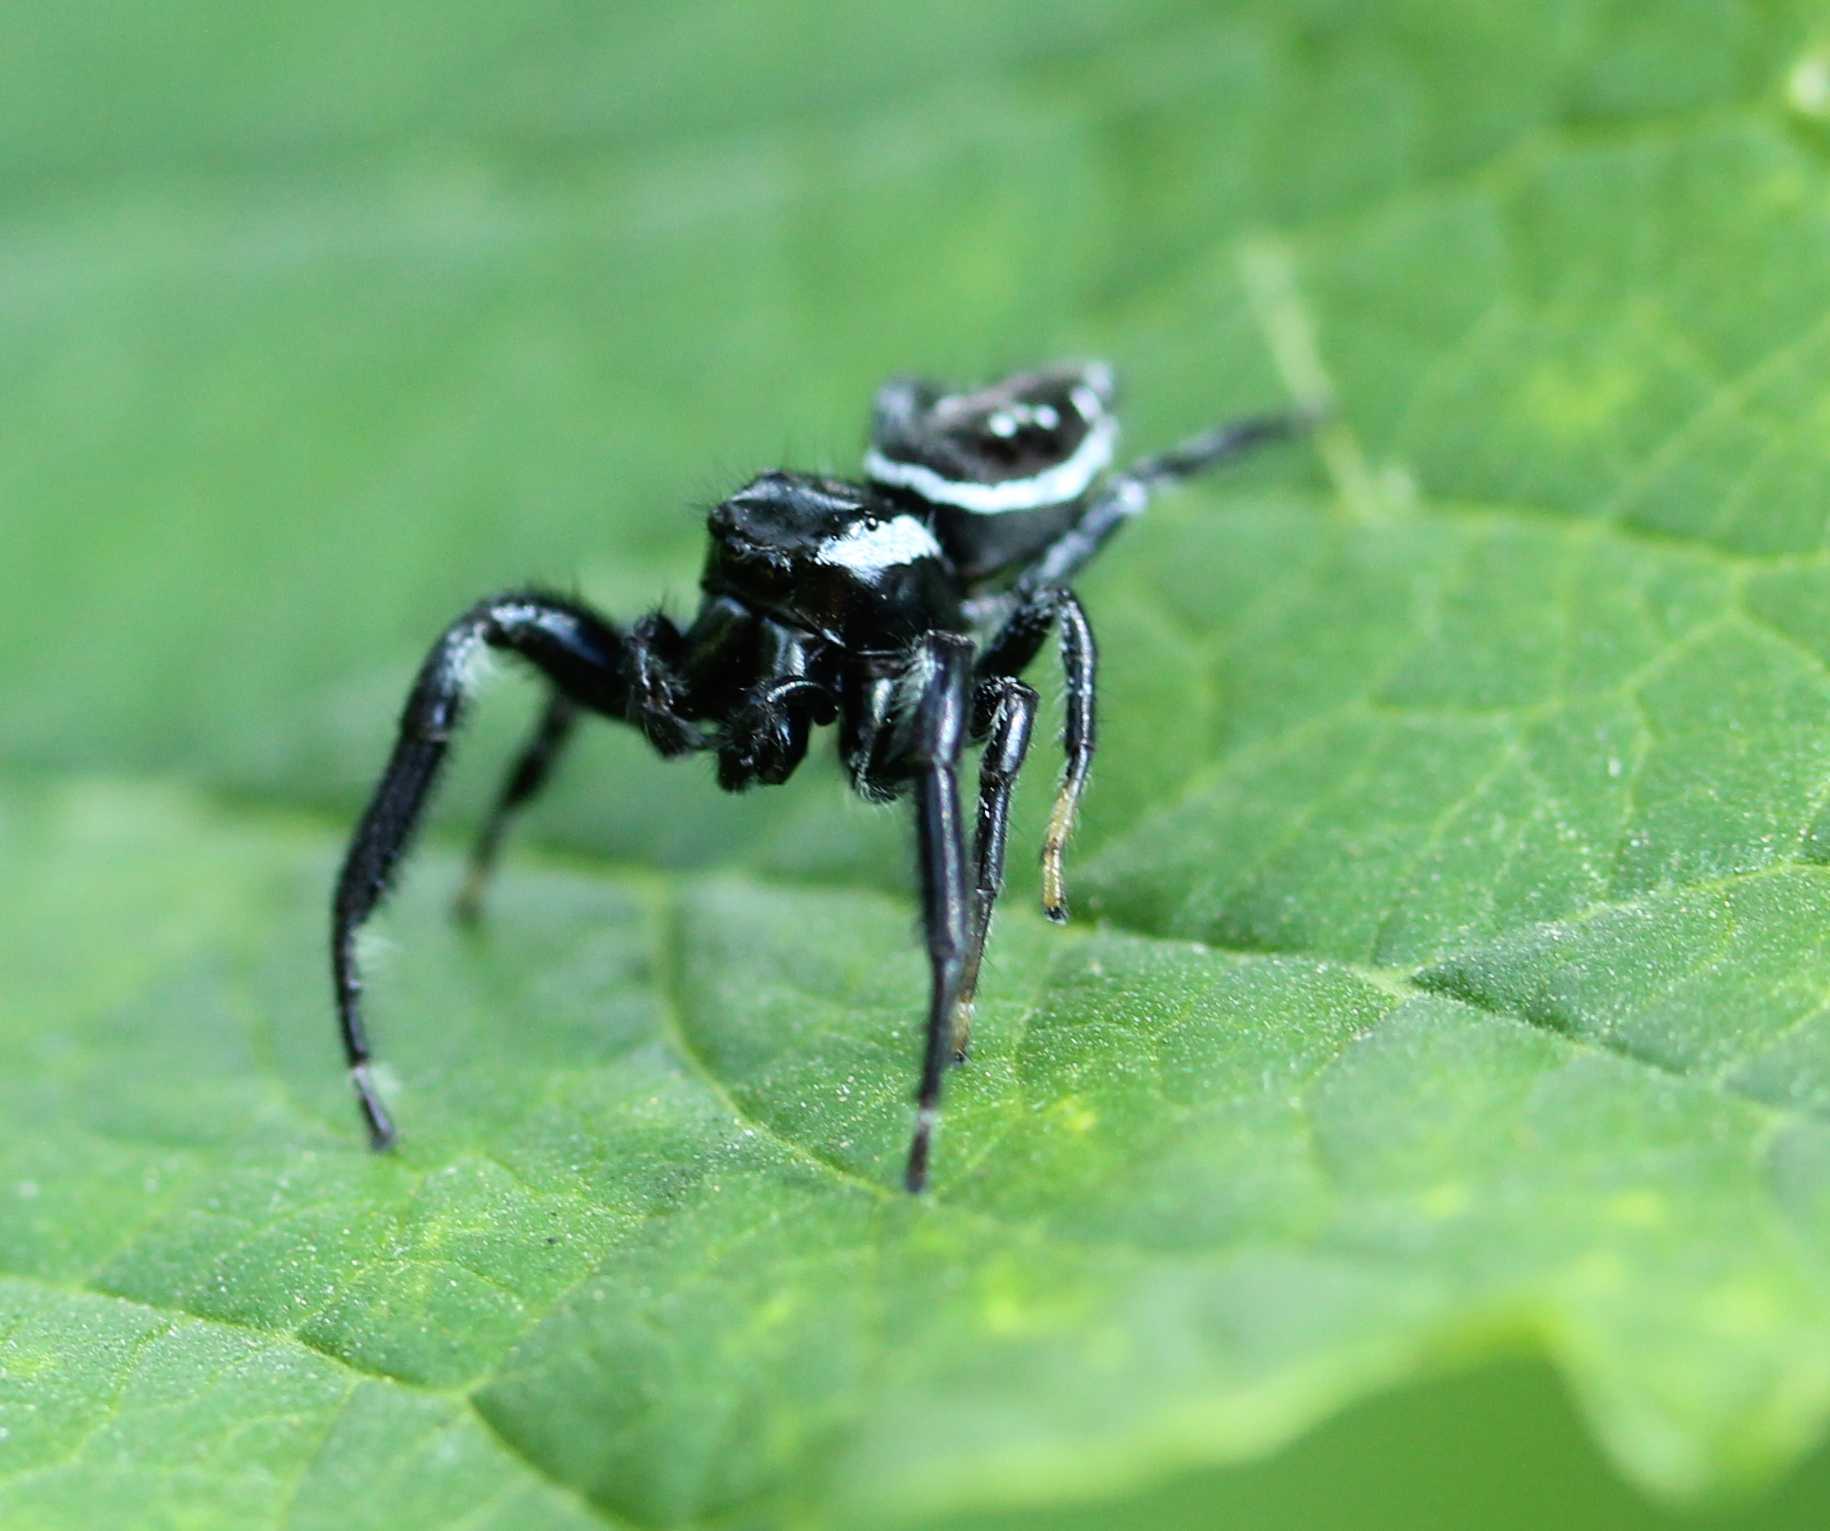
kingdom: Animalia
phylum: Arthropoda
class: Arachnida
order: Araneae
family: Salticidae
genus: Paraphidippus
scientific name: Paraphidippus aurantius
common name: Jumping spiders
